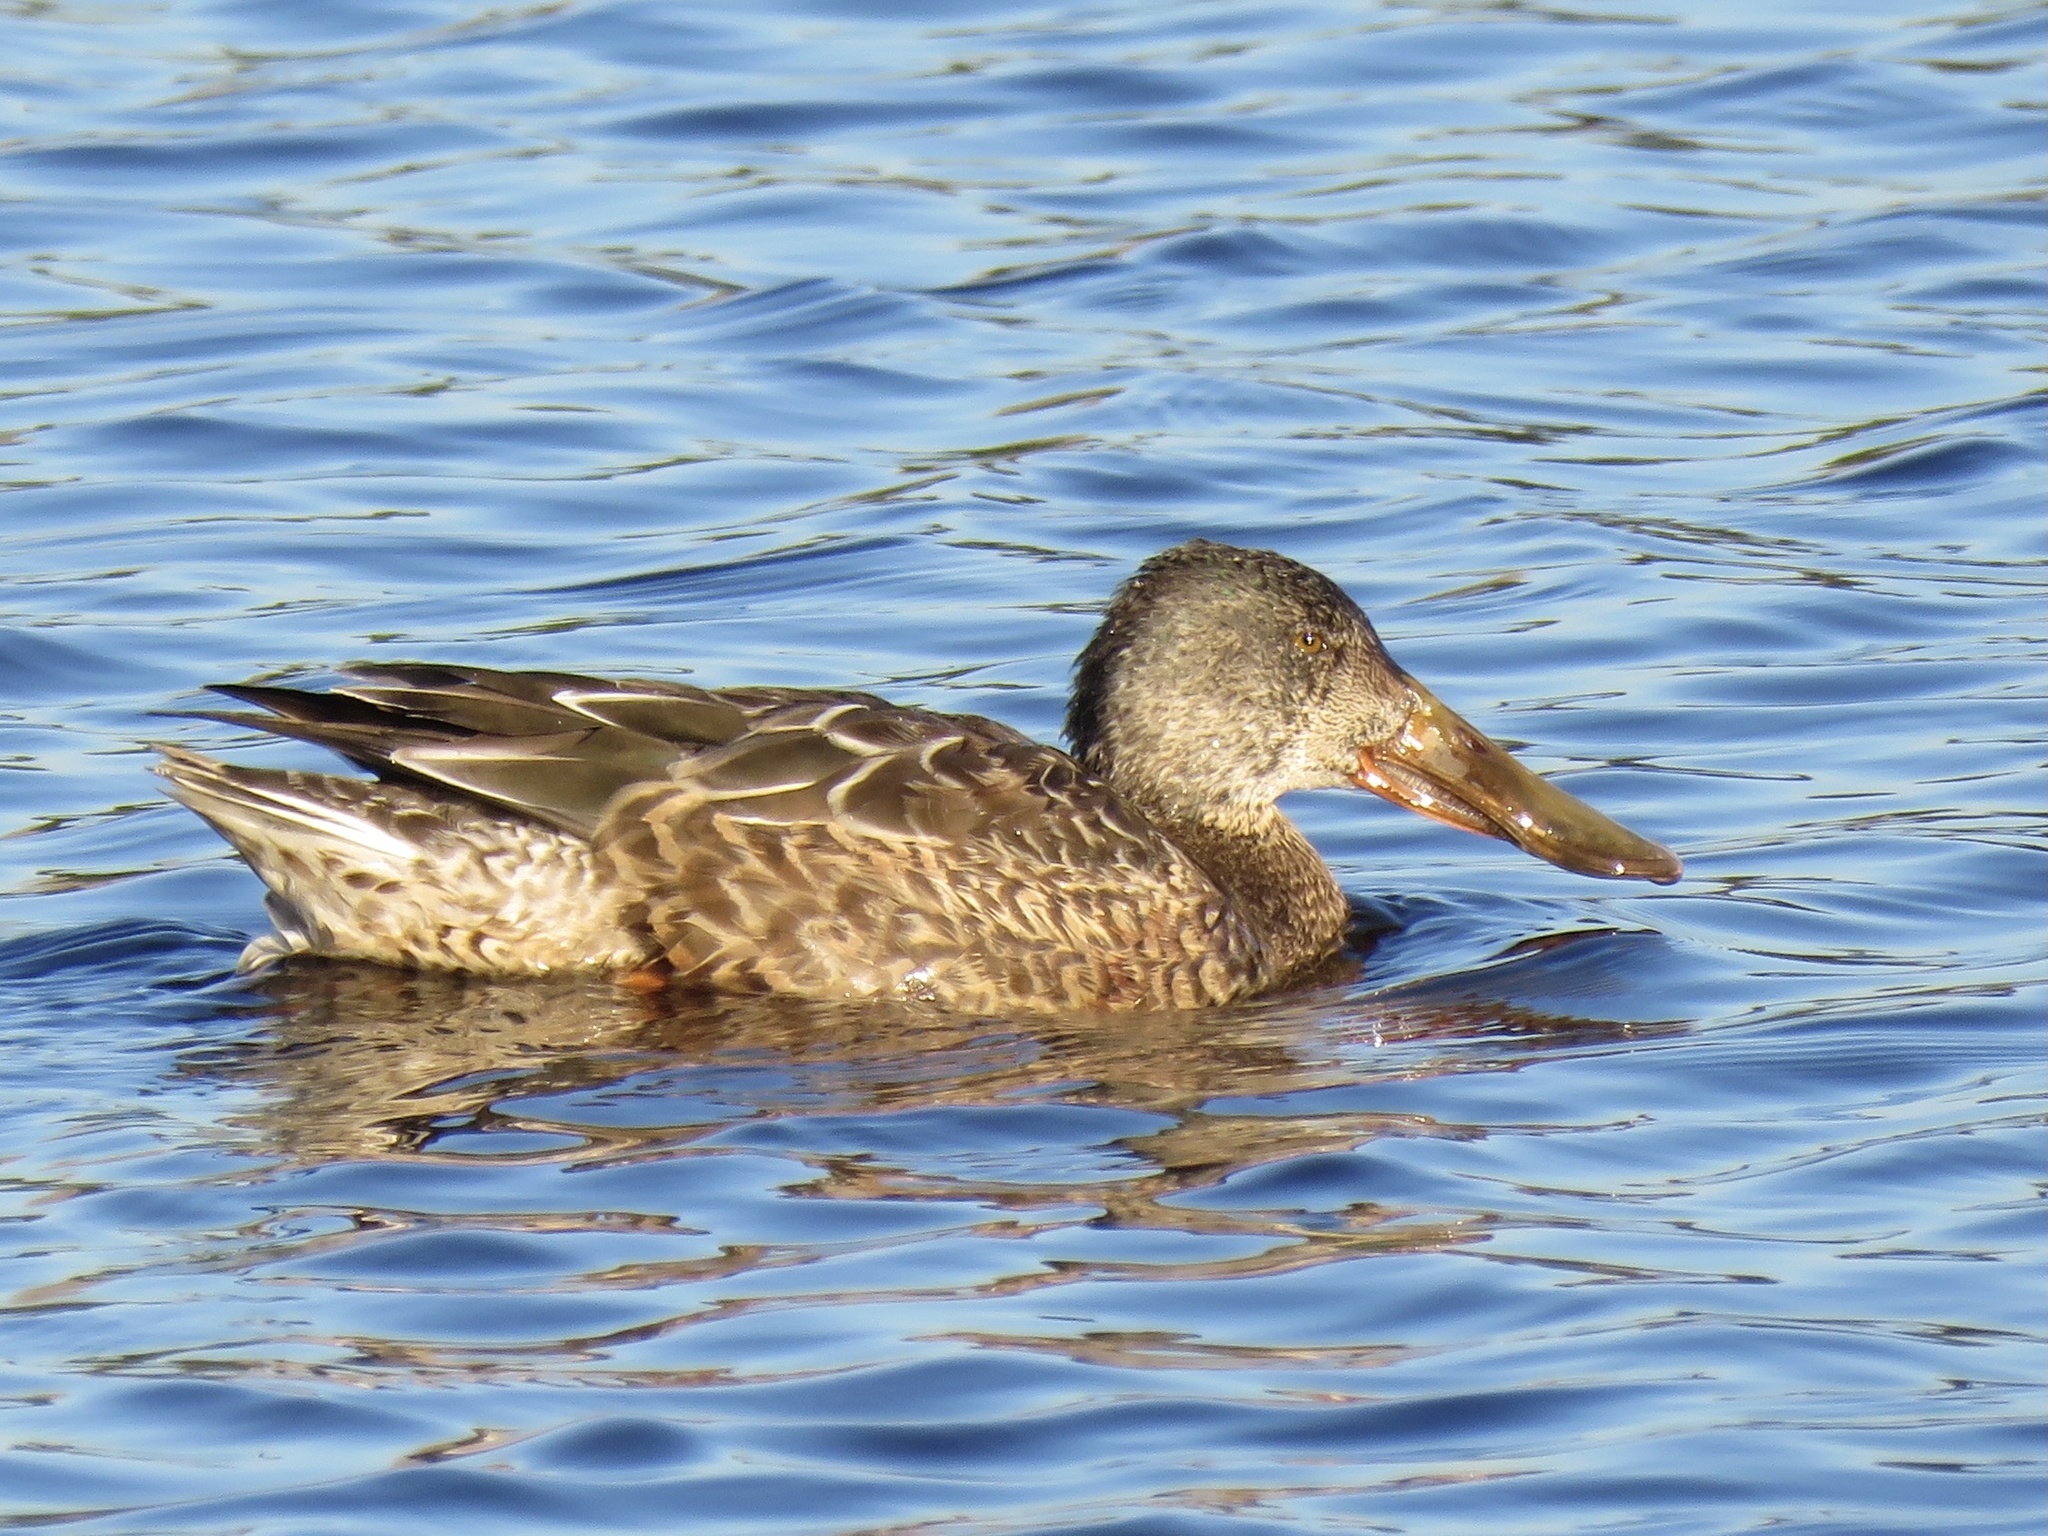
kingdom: Animalia
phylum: Chordata
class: Aves
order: Anseriformes
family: Anatidae
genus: Spatula
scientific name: Spatula clypeata
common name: Northern shoveler
